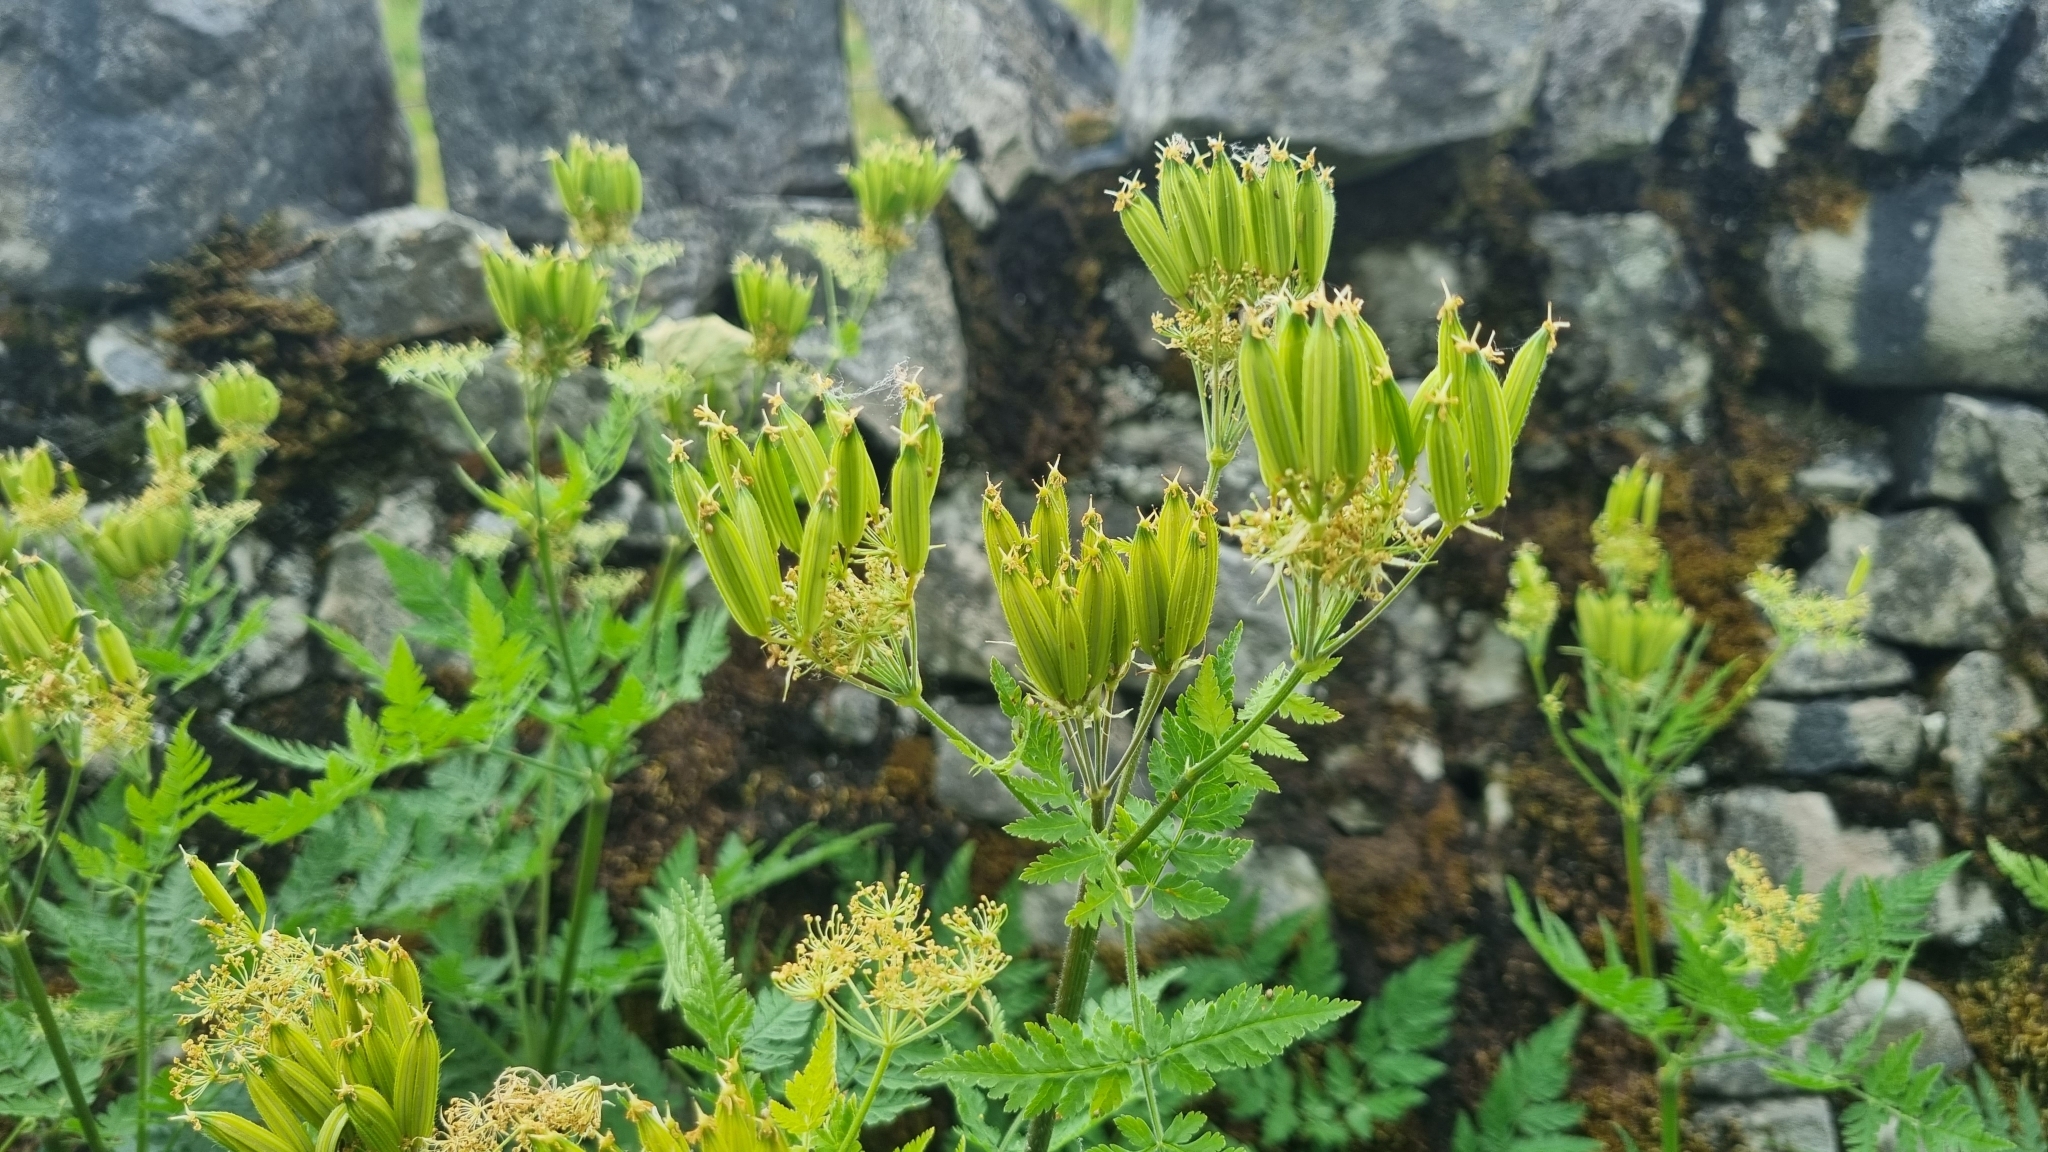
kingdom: Plantae
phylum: Tracheophyta
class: Magnoliopsida
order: Apiales
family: Apiaceae
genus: Myrrhis
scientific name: Myrrhis odorata
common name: Sweet cicely
